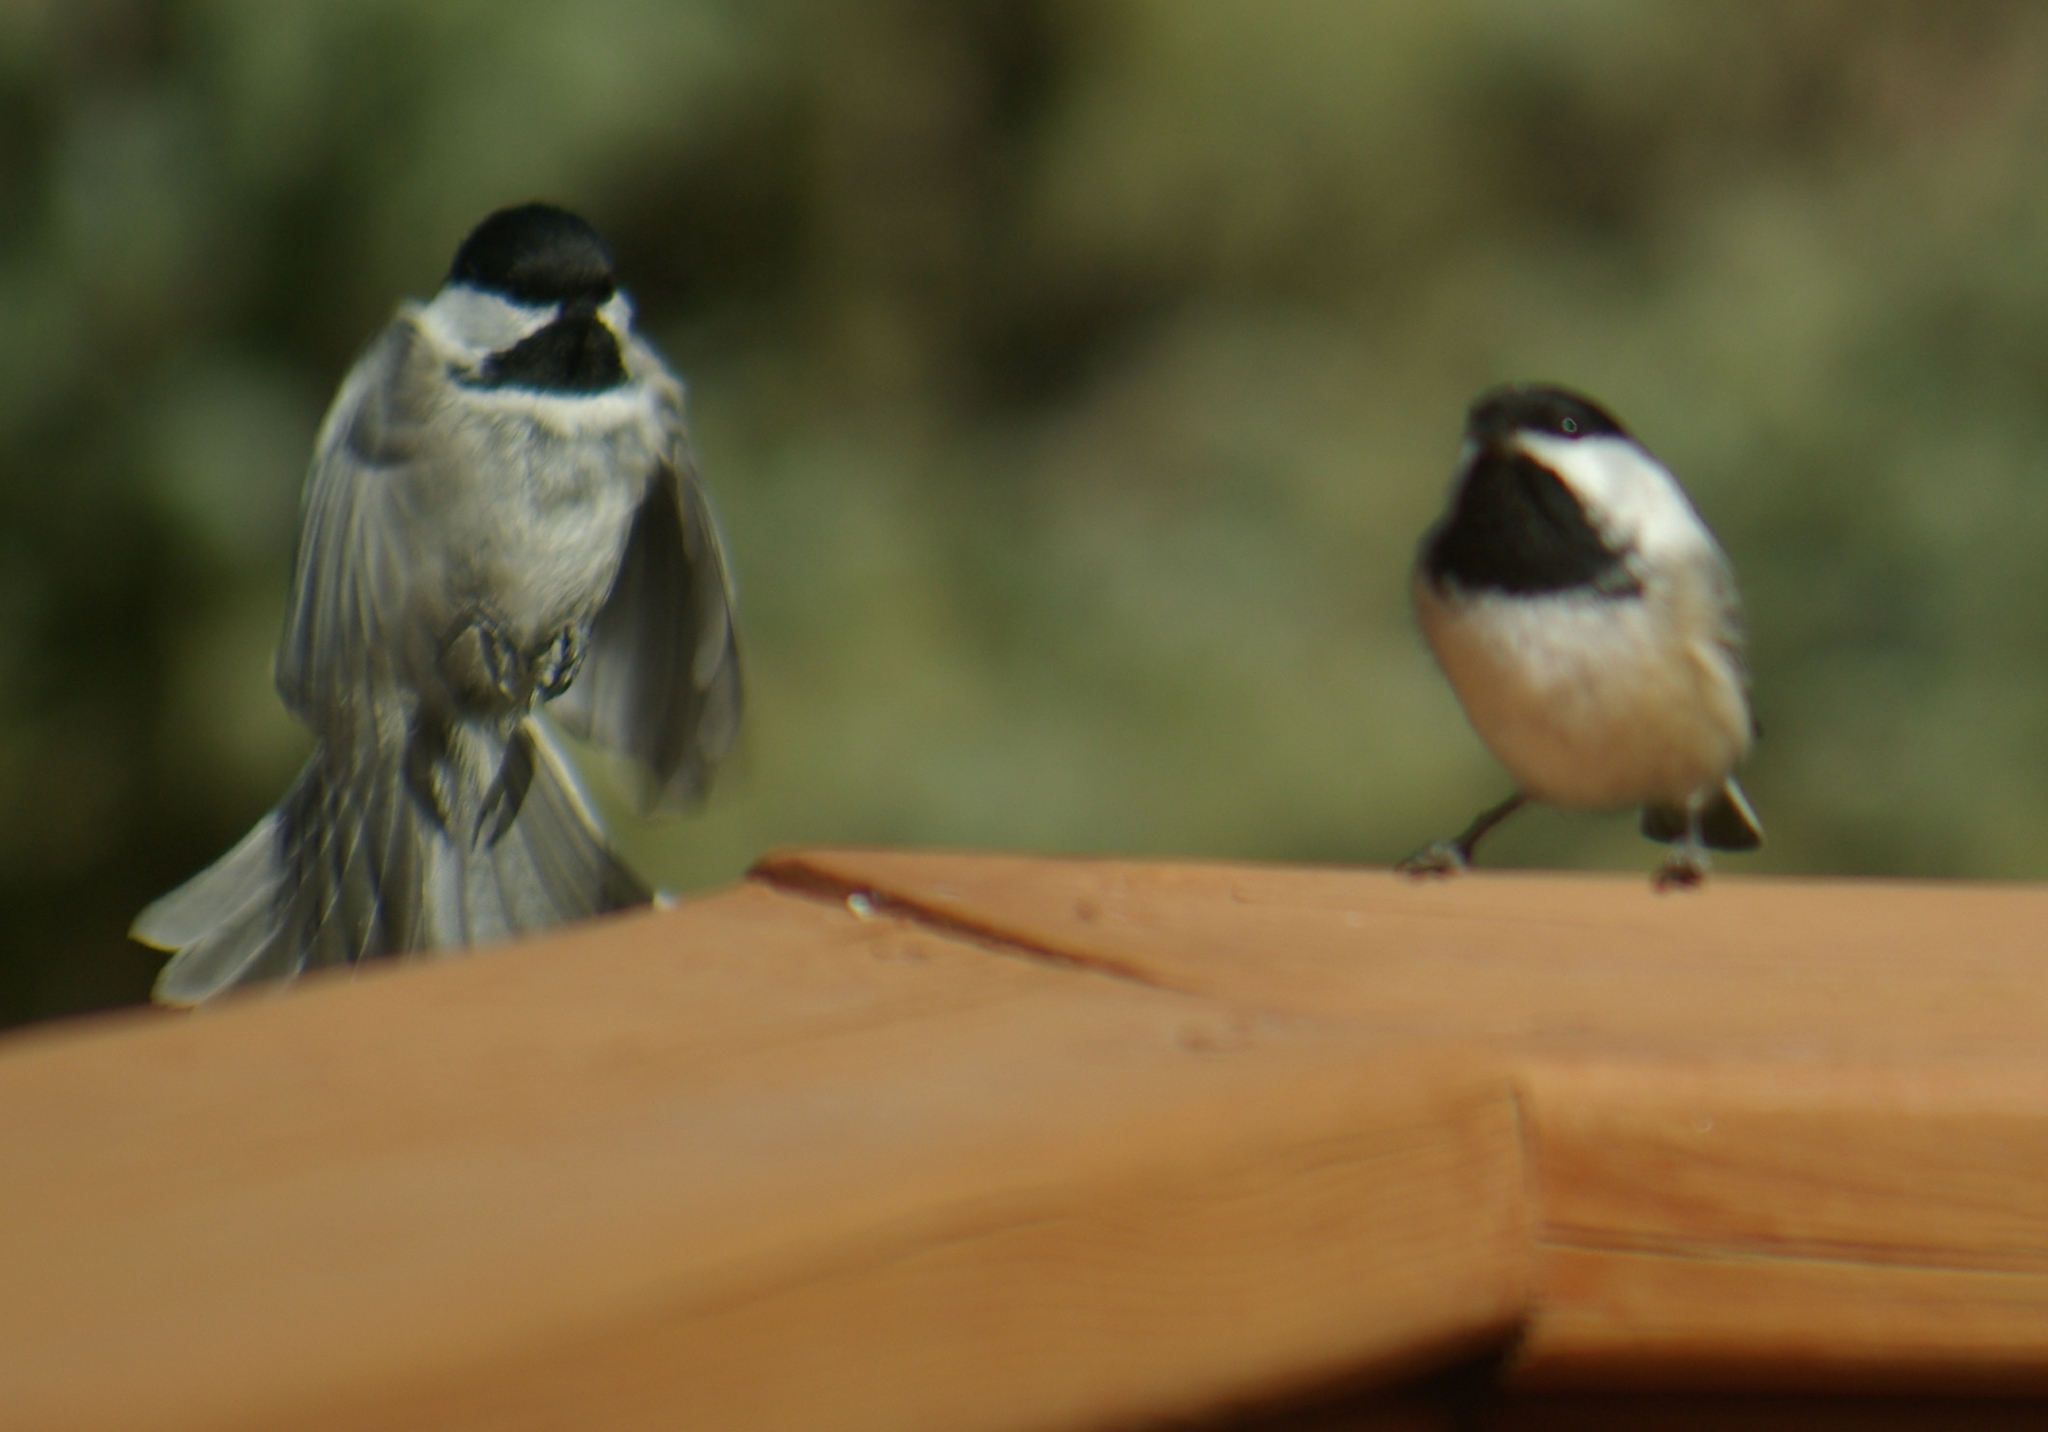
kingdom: Animalia
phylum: Chordata
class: Aves
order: Passeriformes
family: Paridae
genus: Poecile
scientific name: Poecile atricapillus
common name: Black-capped chickadee
